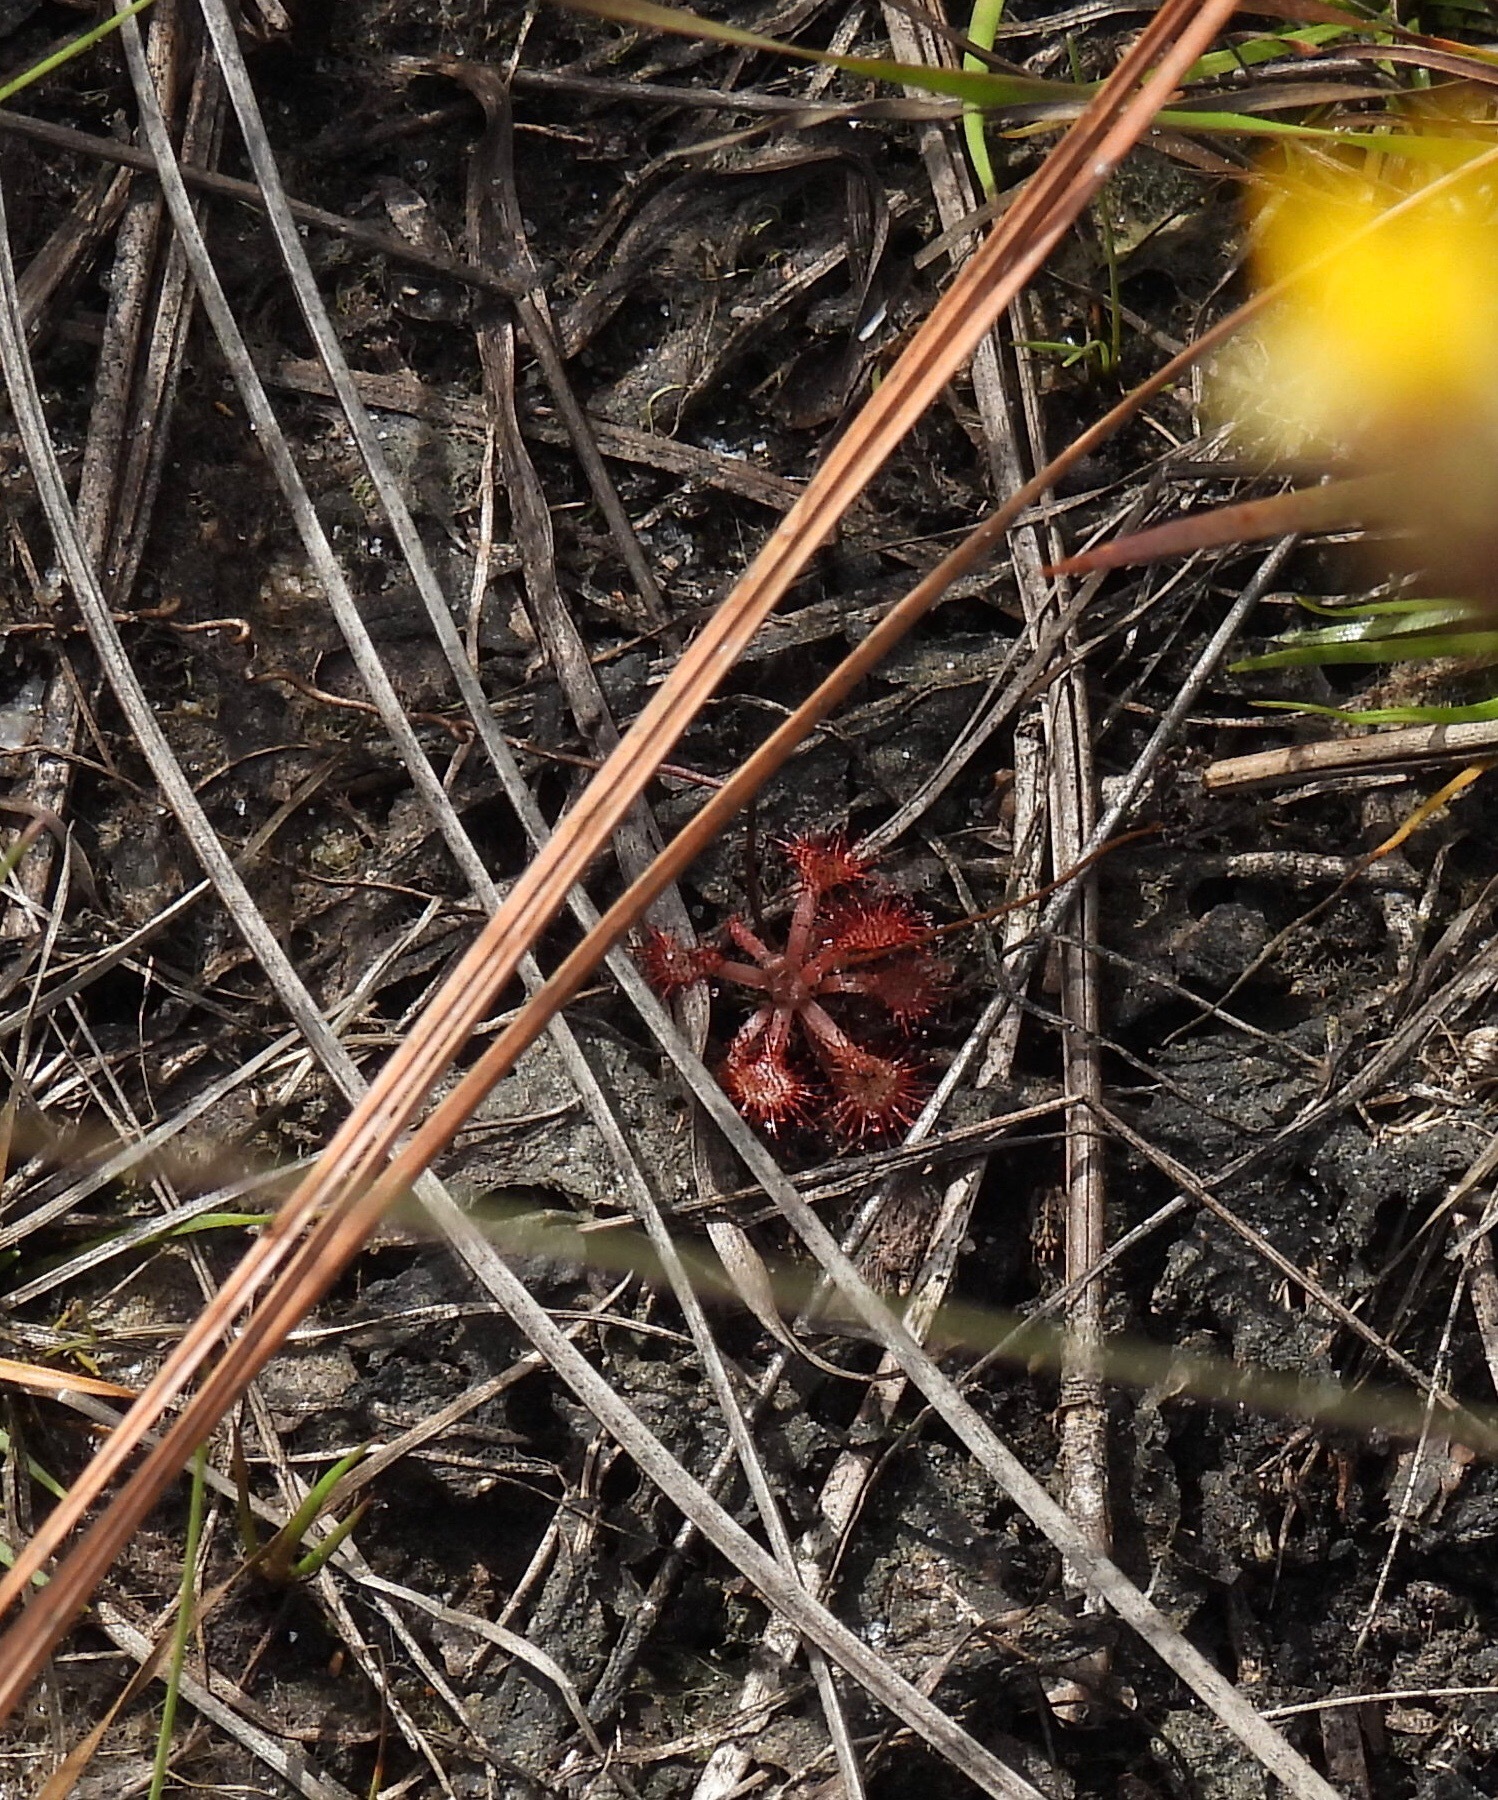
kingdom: Plantae
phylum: Tracheophyta
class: Magnoliopsida
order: Caryophyllales
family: Droseraceae
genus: Drosera
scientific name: Drosera capillaris
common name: Pink sundew
